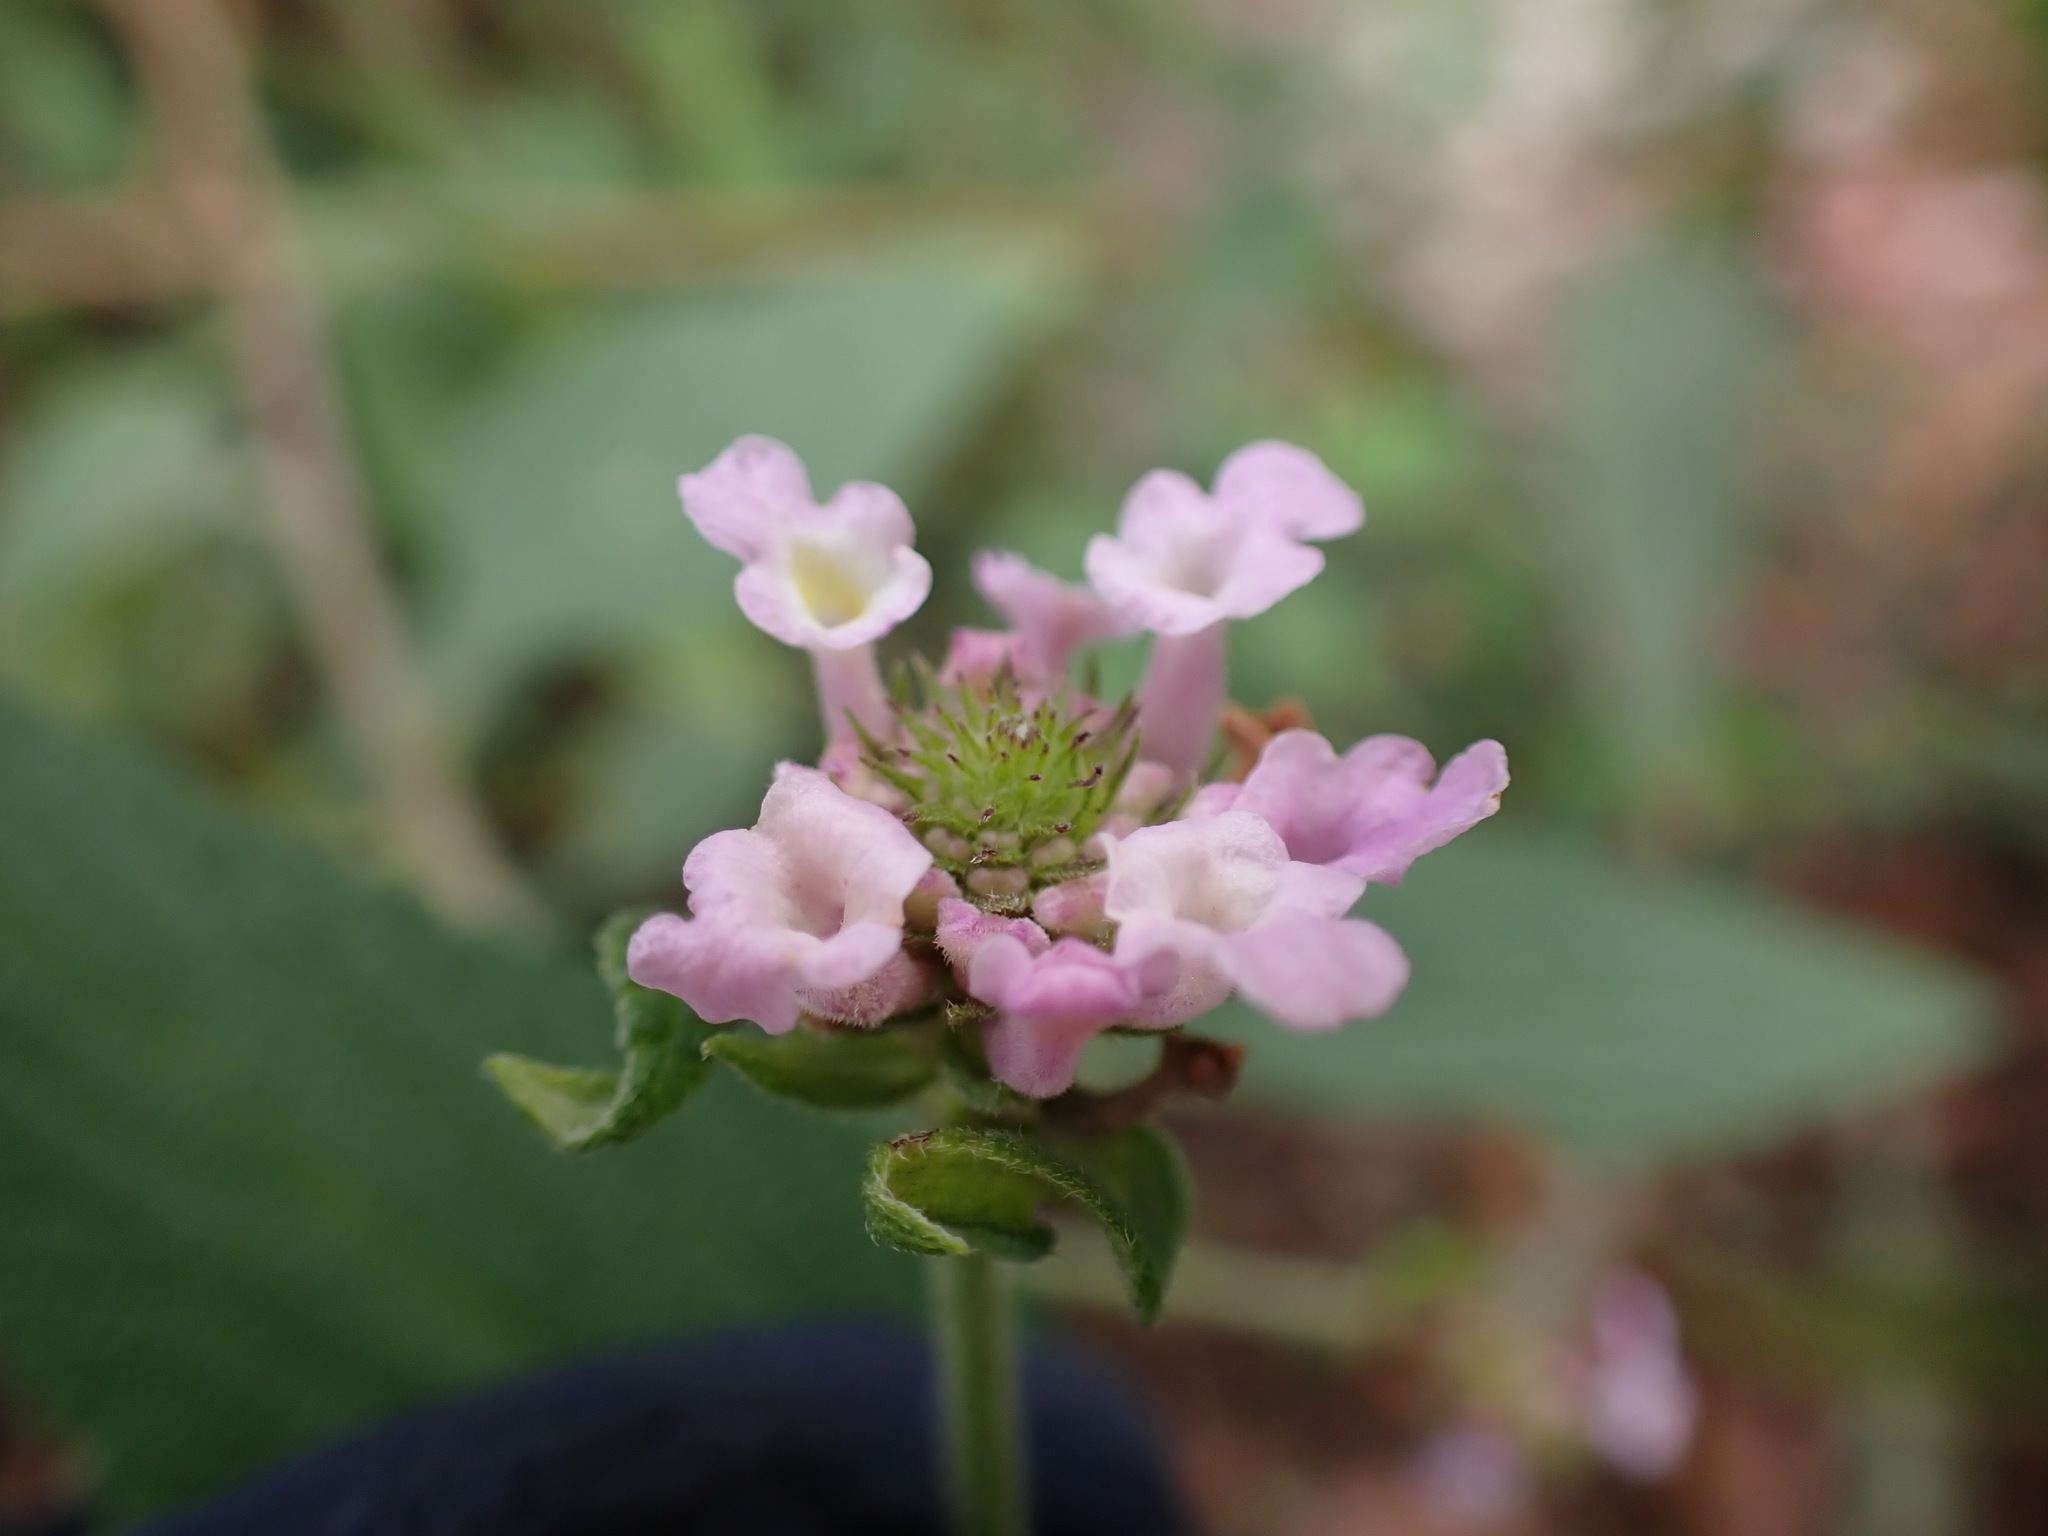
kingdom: Plantae
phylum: Tracheophyta
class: Magnoliopsida
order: Lamiales
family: Verbenaceae
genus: Lantana
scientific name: Lantana rugulosa
